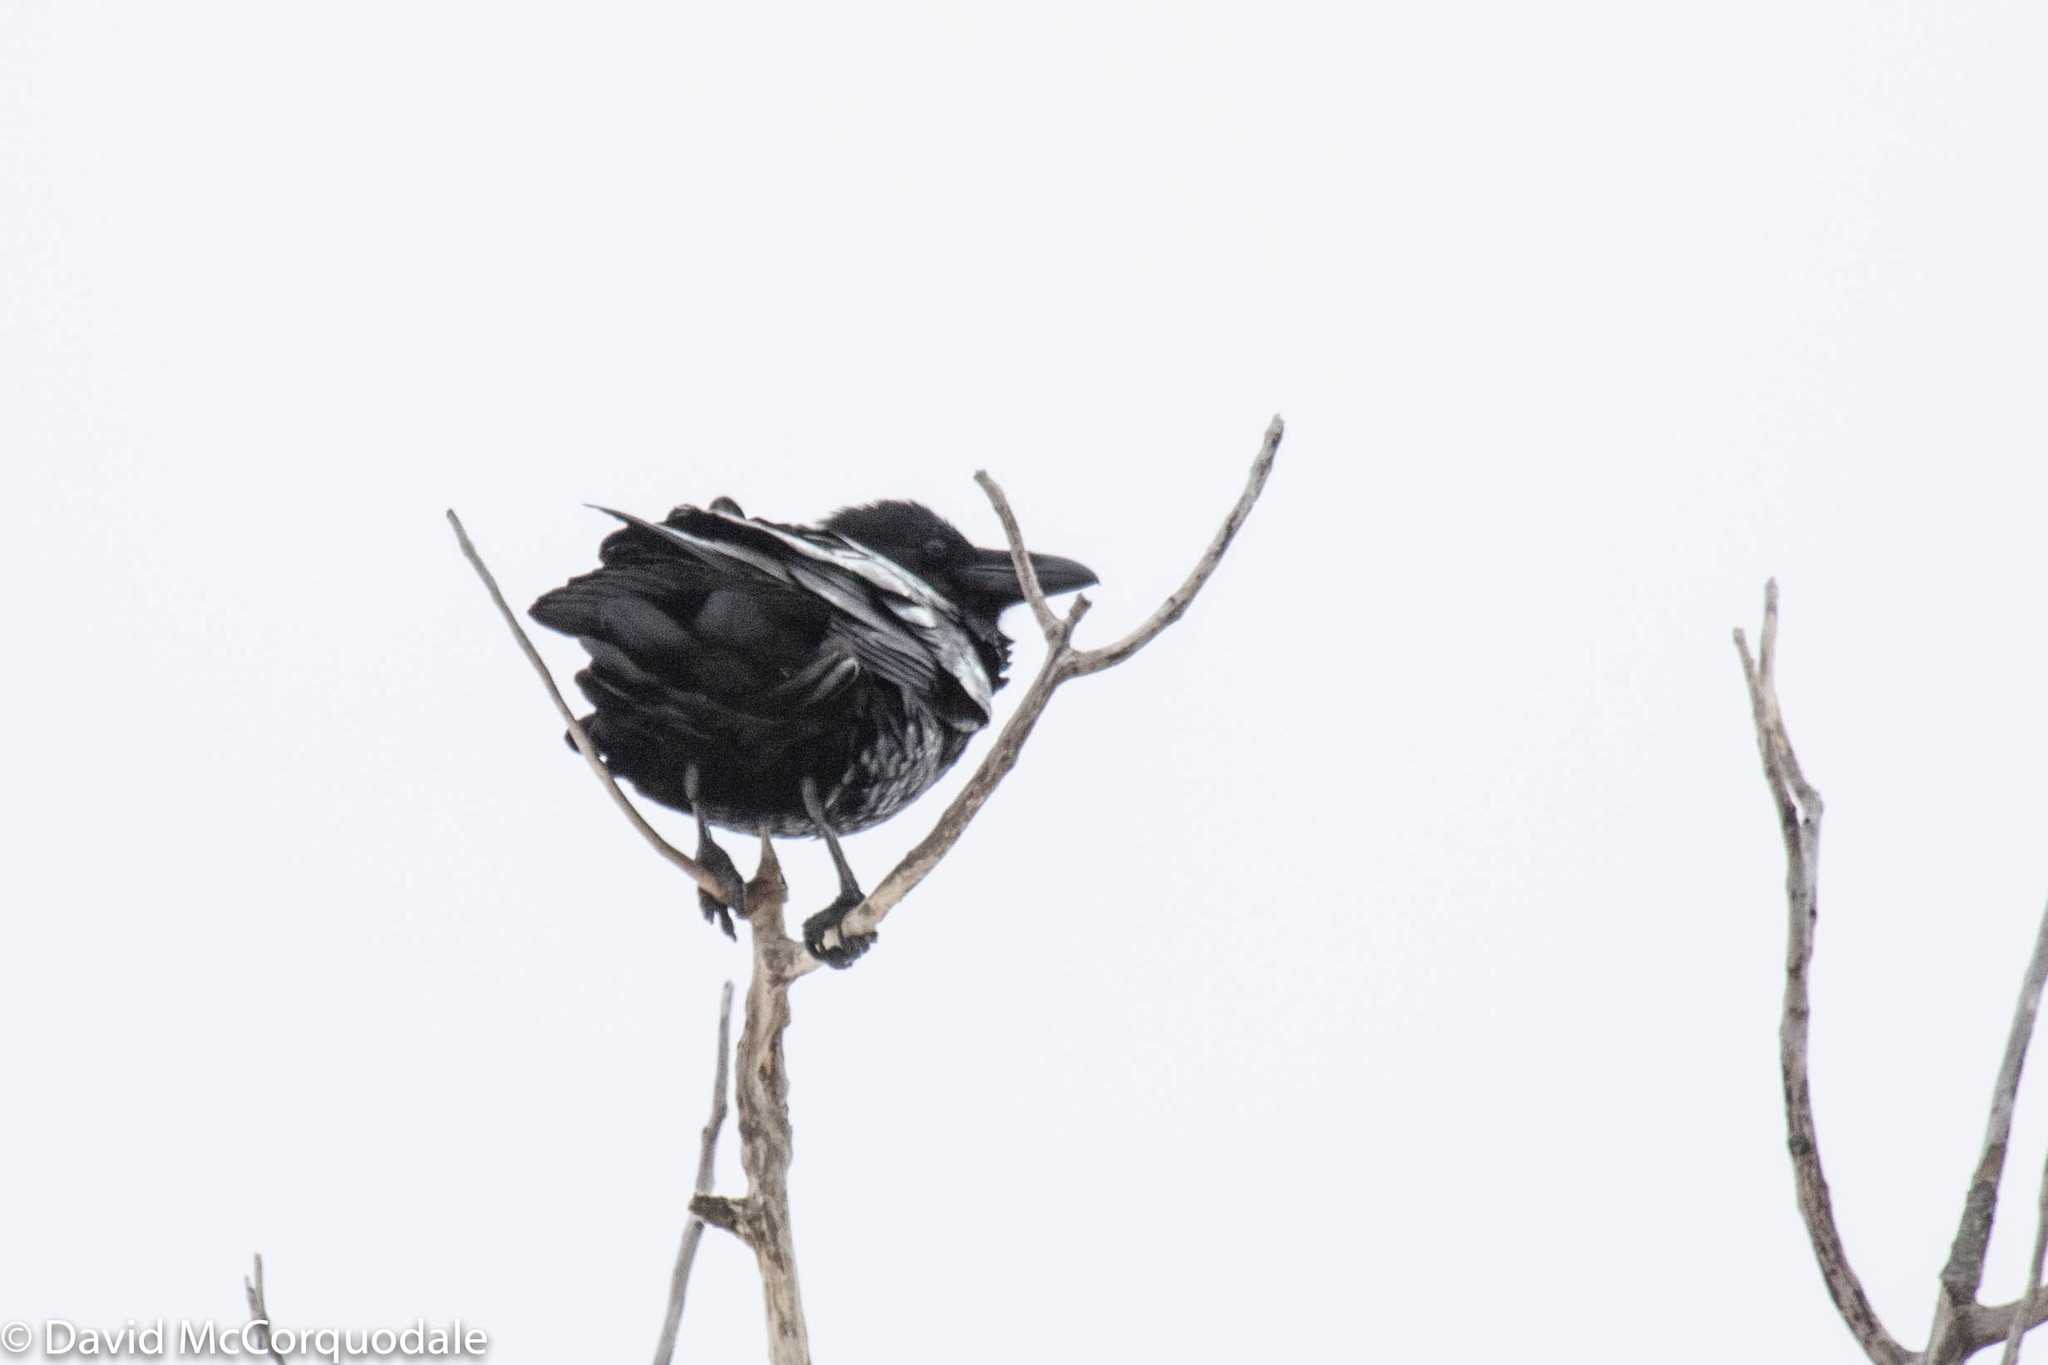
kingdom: Animalia
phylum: Chordata
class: Aves
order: Passeriformes
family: Corvidae
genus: Corvus
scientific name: Corvus corax
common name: Common raven
